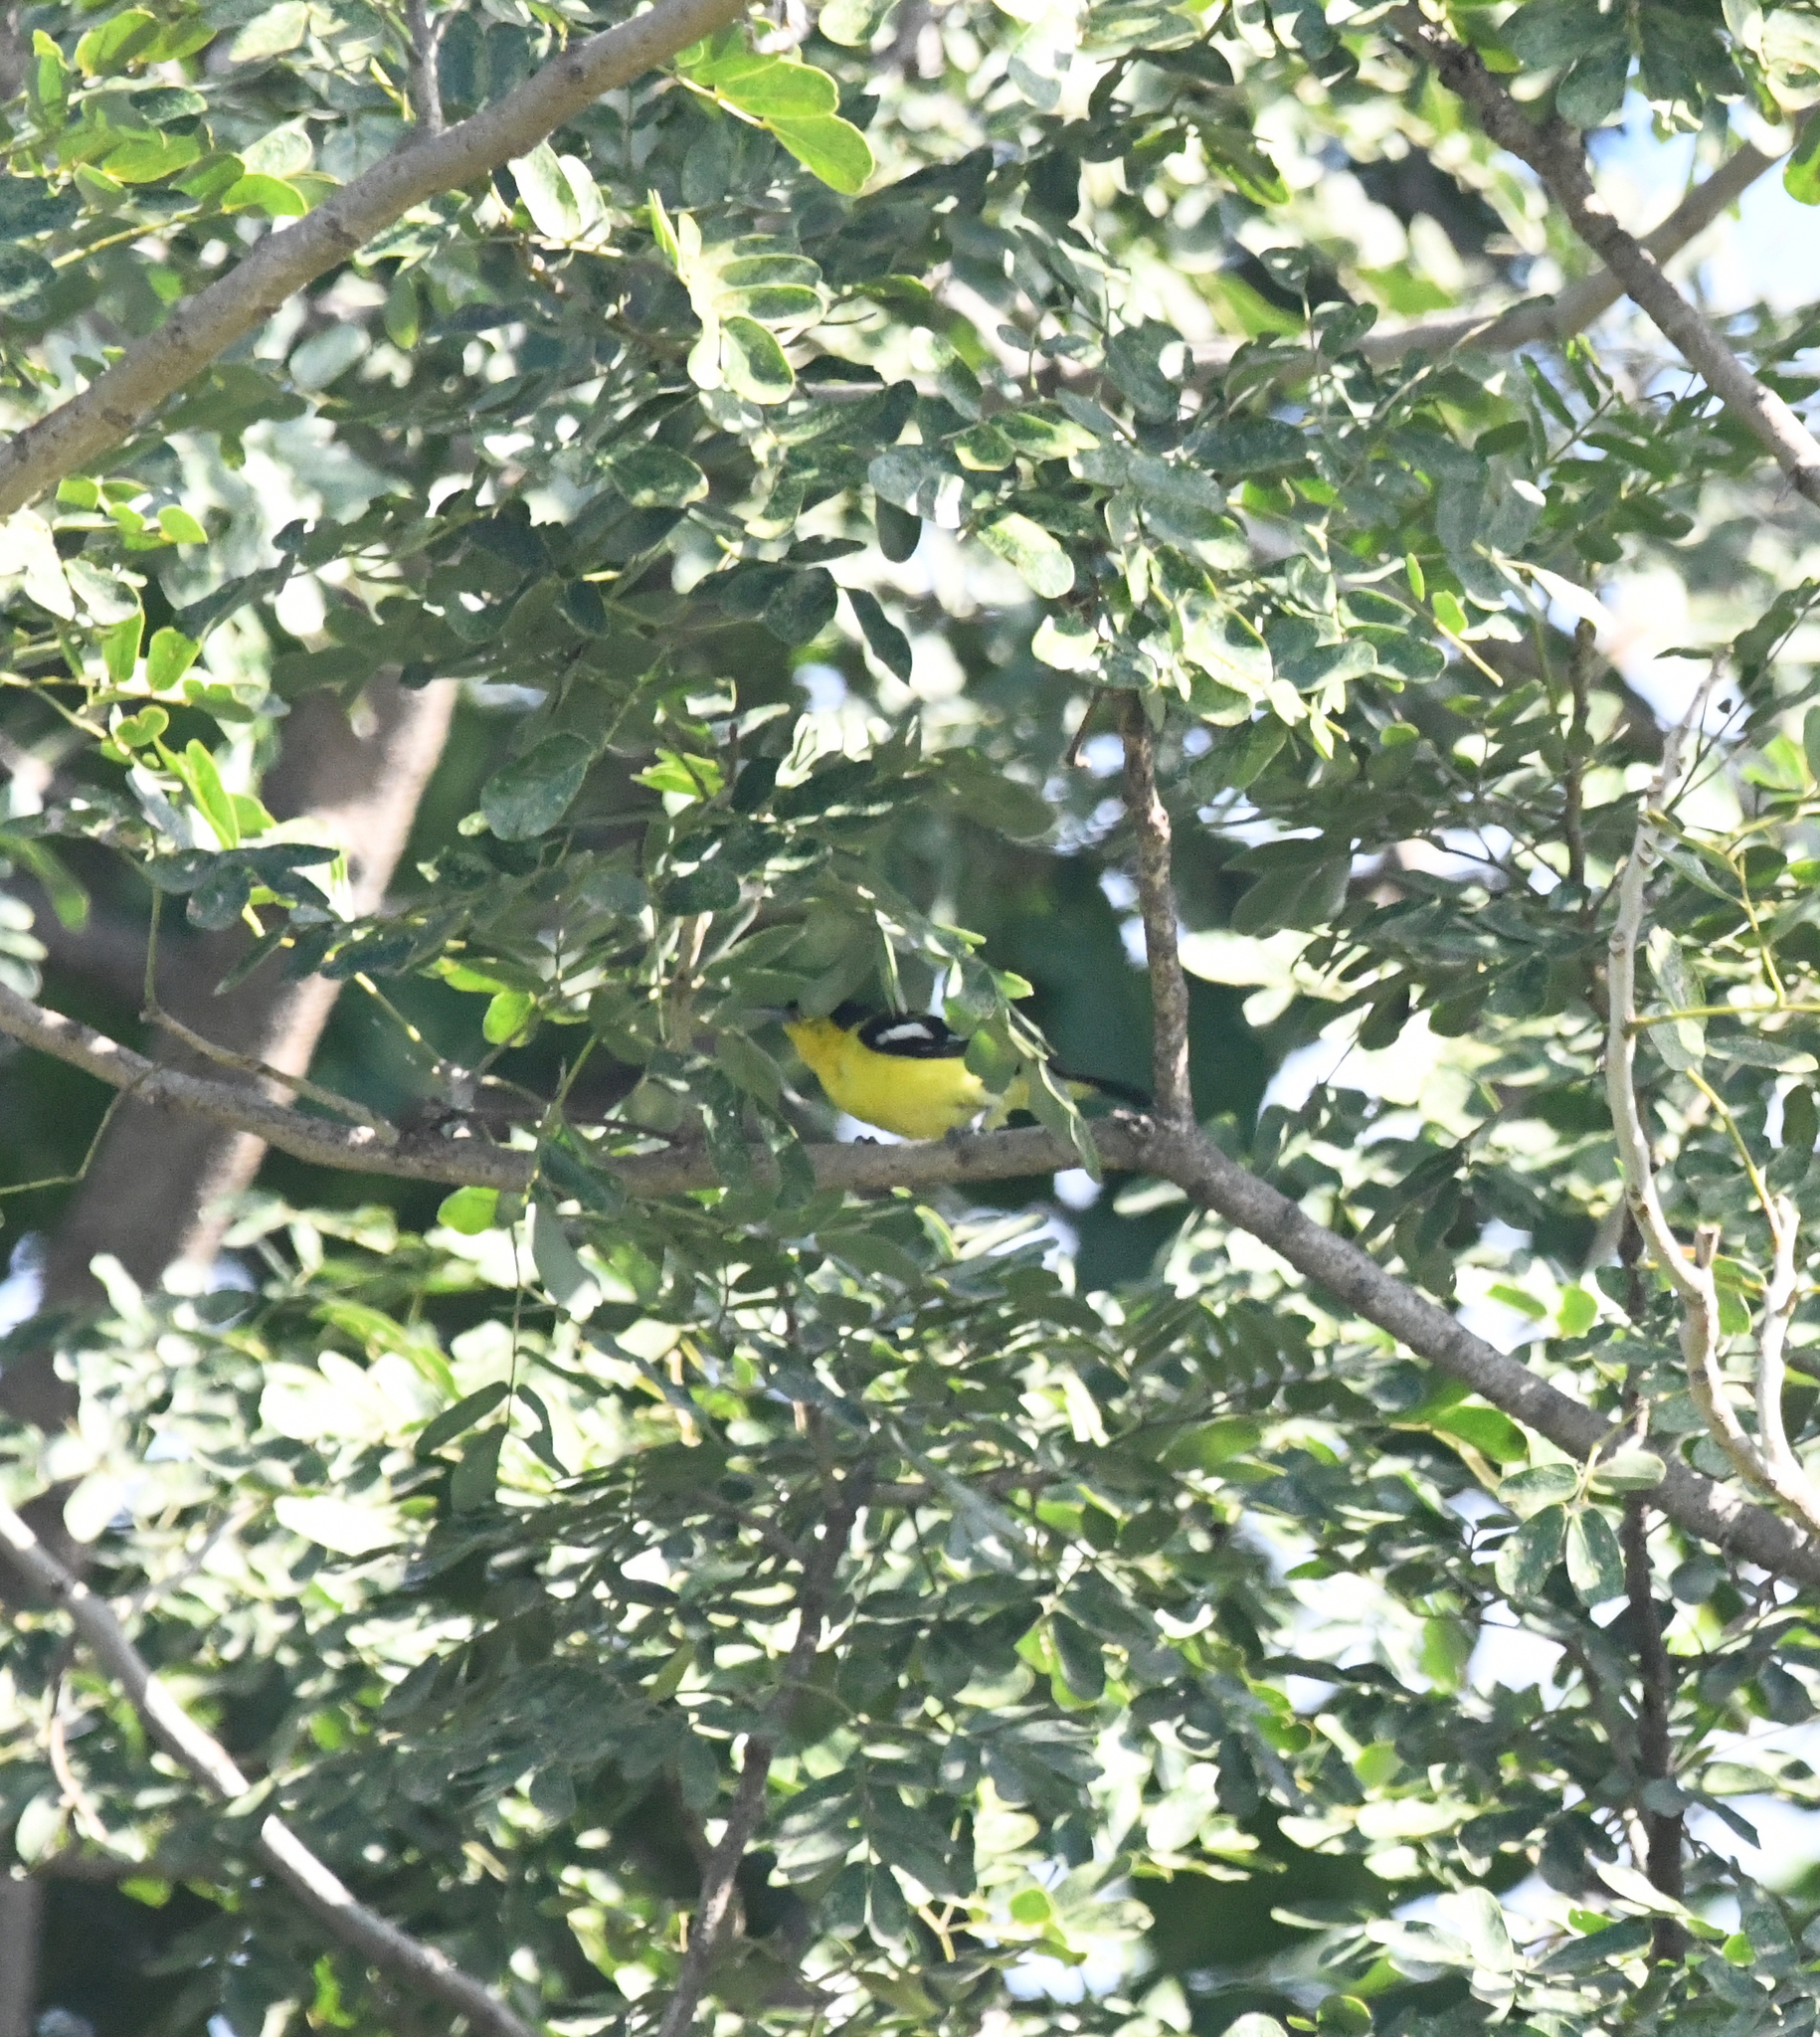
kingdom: Animalia
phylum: Chordata
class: Aves
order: Passeriformes
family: Aegithinidae
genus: Aegithina
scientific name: Aegithina tiphia
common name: Common iora
